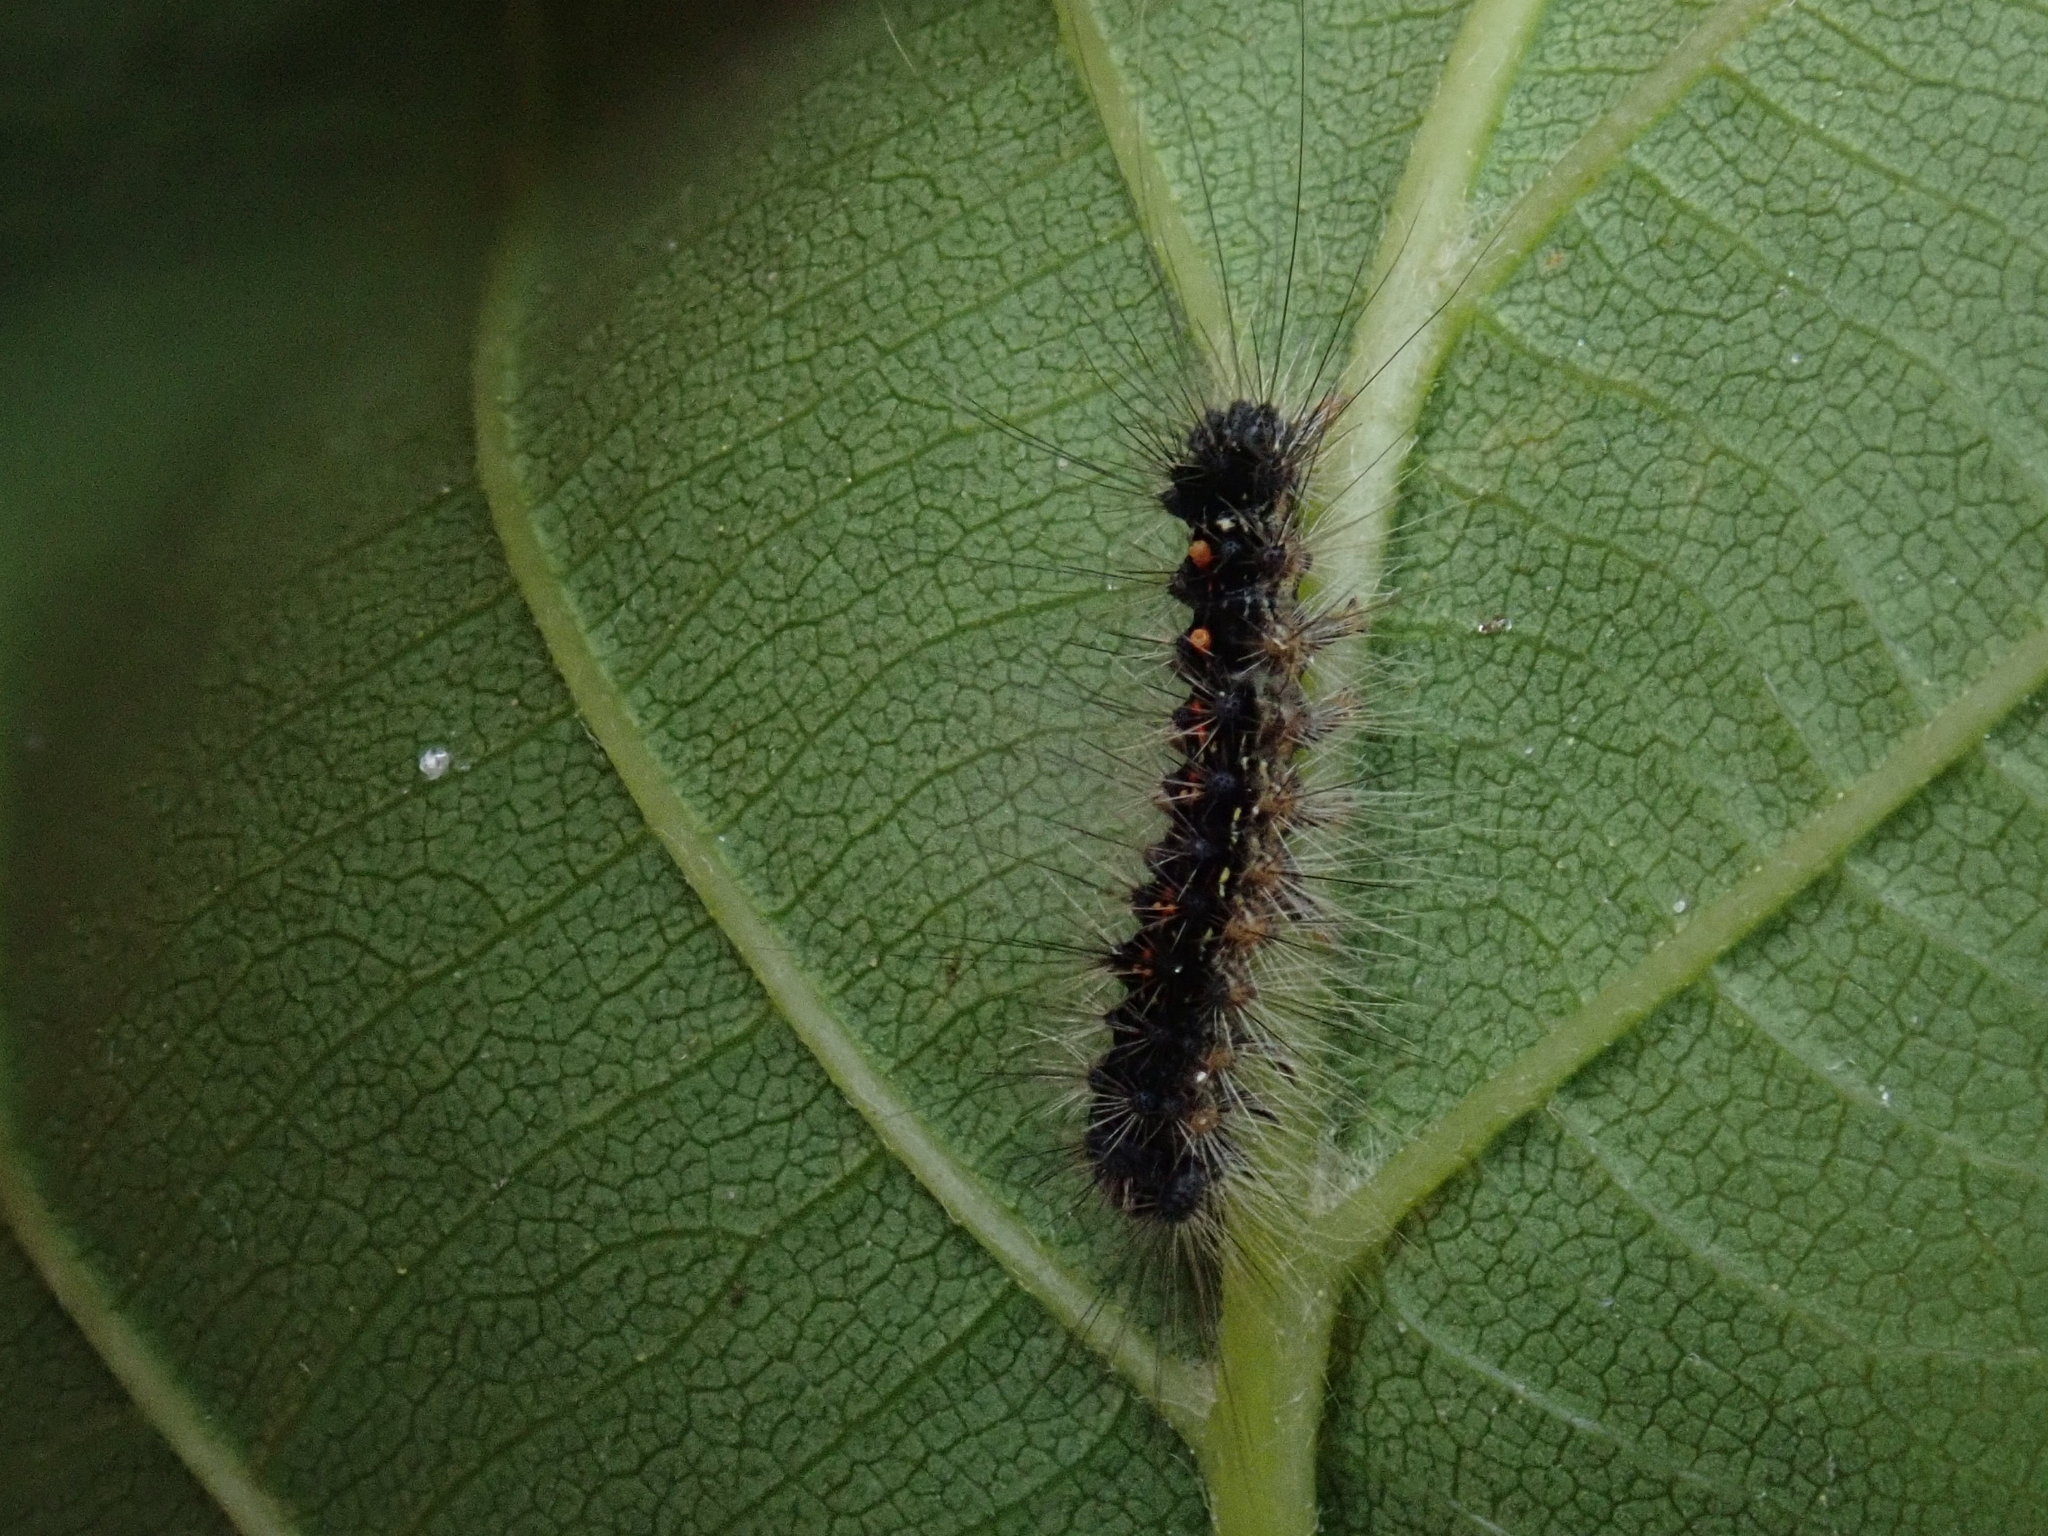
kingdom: Animalia
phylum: Arthropoda
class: Insecta
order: Lepidoptera
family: Erebidae
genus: Lymantria
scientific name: Lymantria dispar
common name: Gypsy moth
